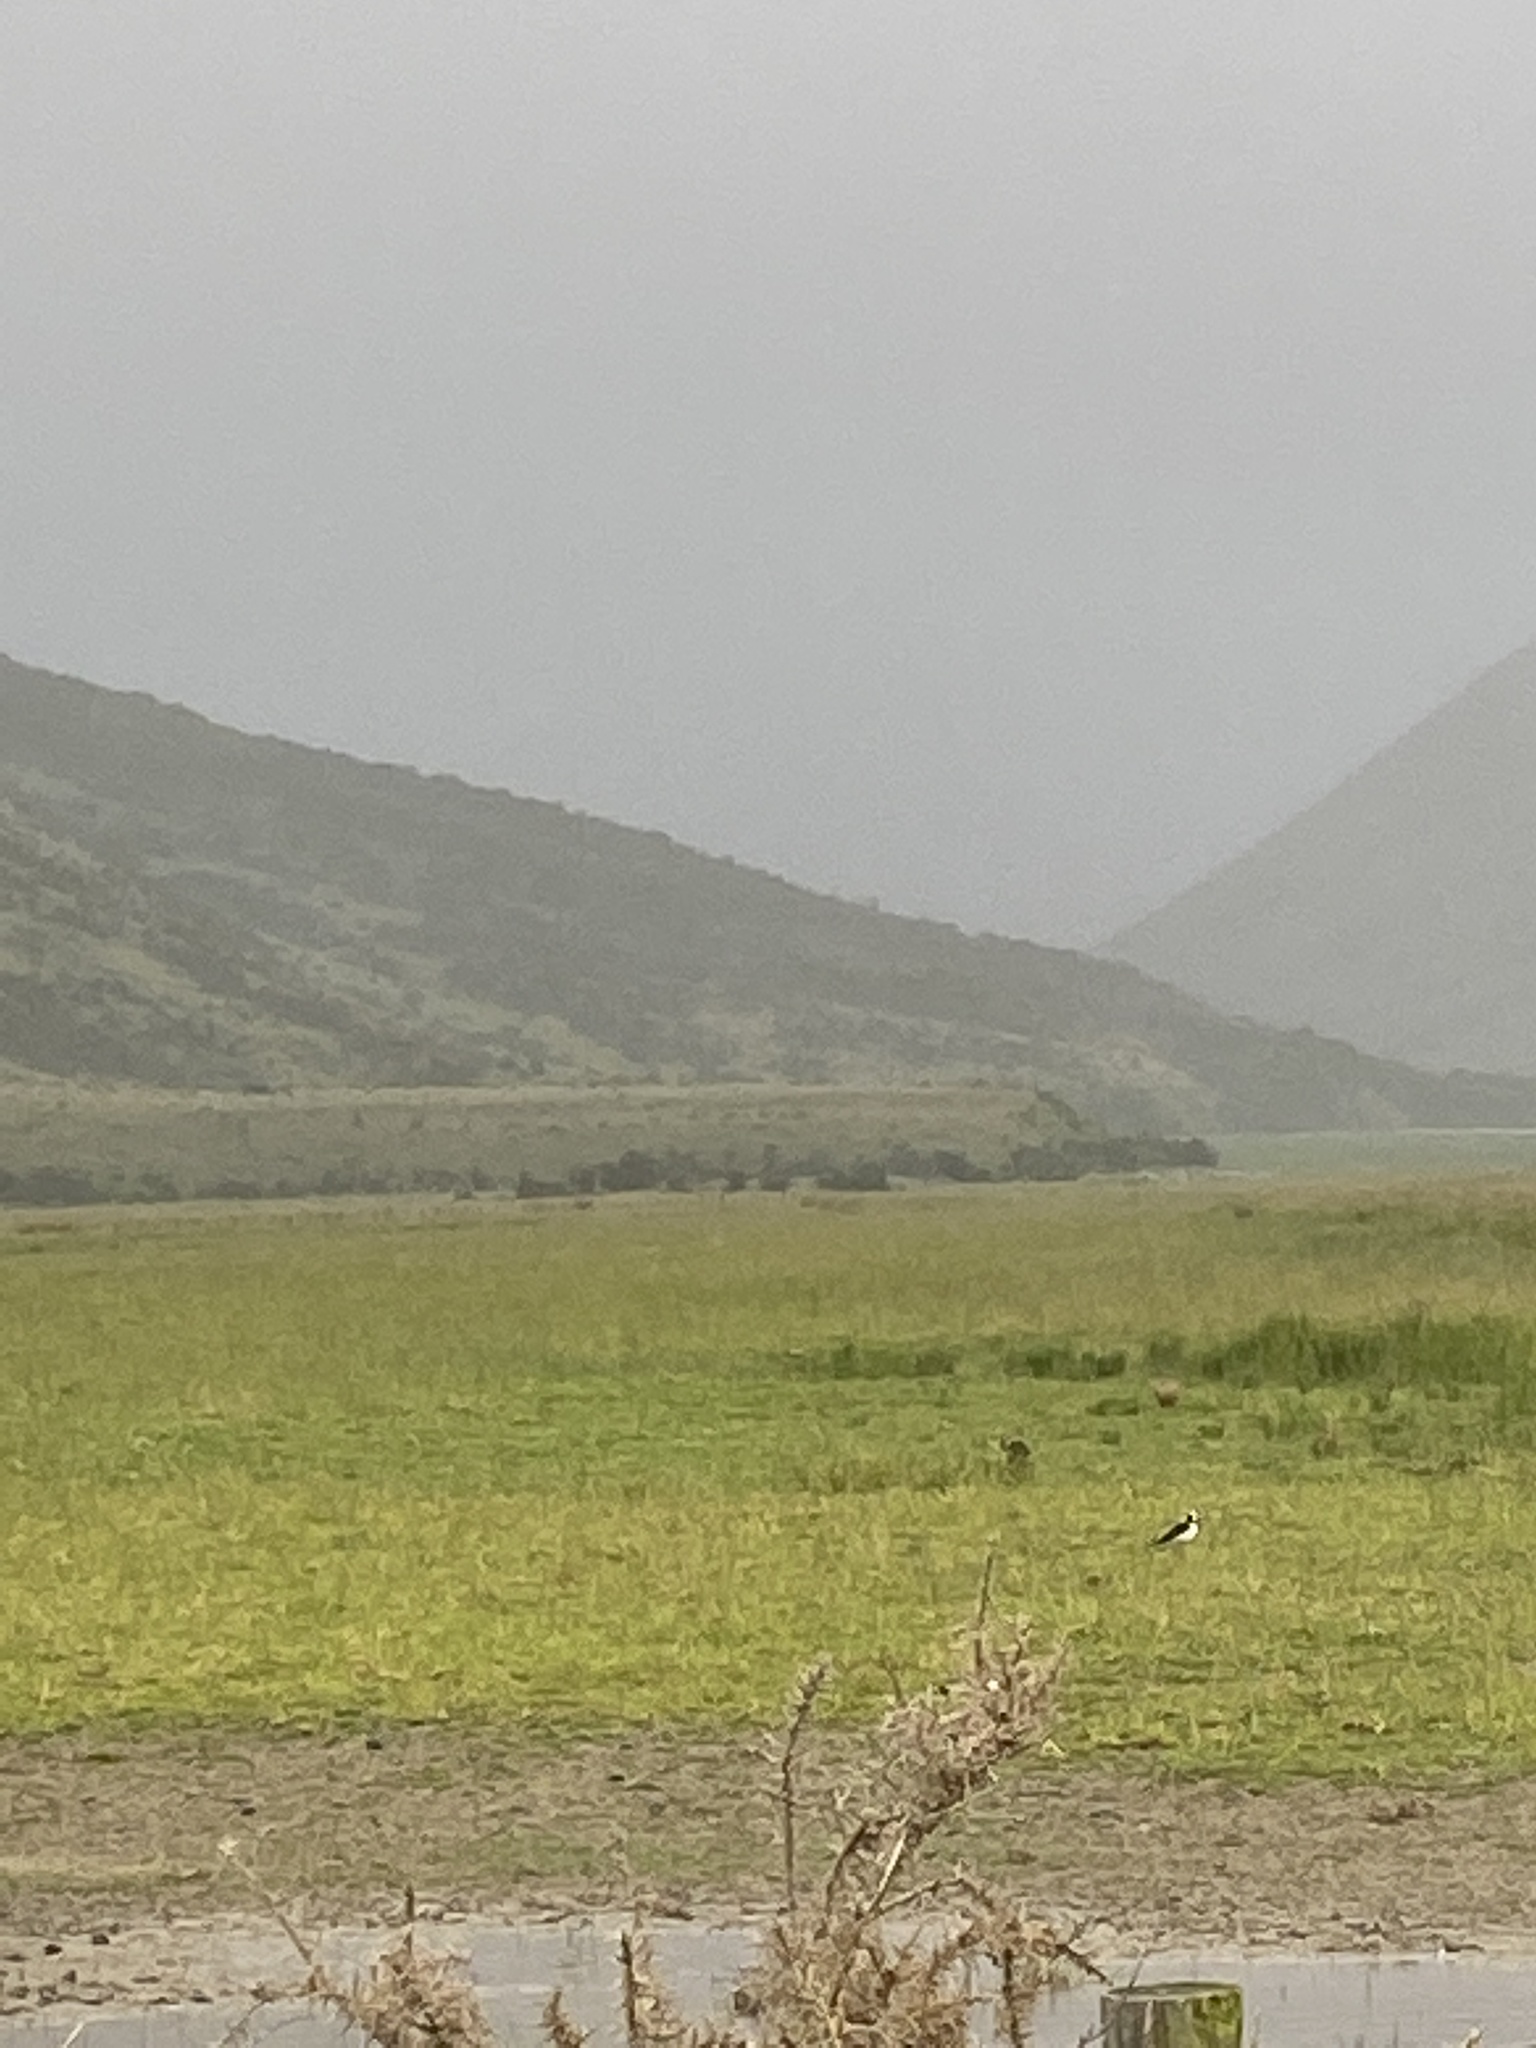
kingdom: Animalia
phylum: Chordata
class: Aves
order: Charadriiformes
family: Recurvirostridae
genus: Himantopus
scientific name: Himantopus leucocephalus
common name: White-headed stilt
